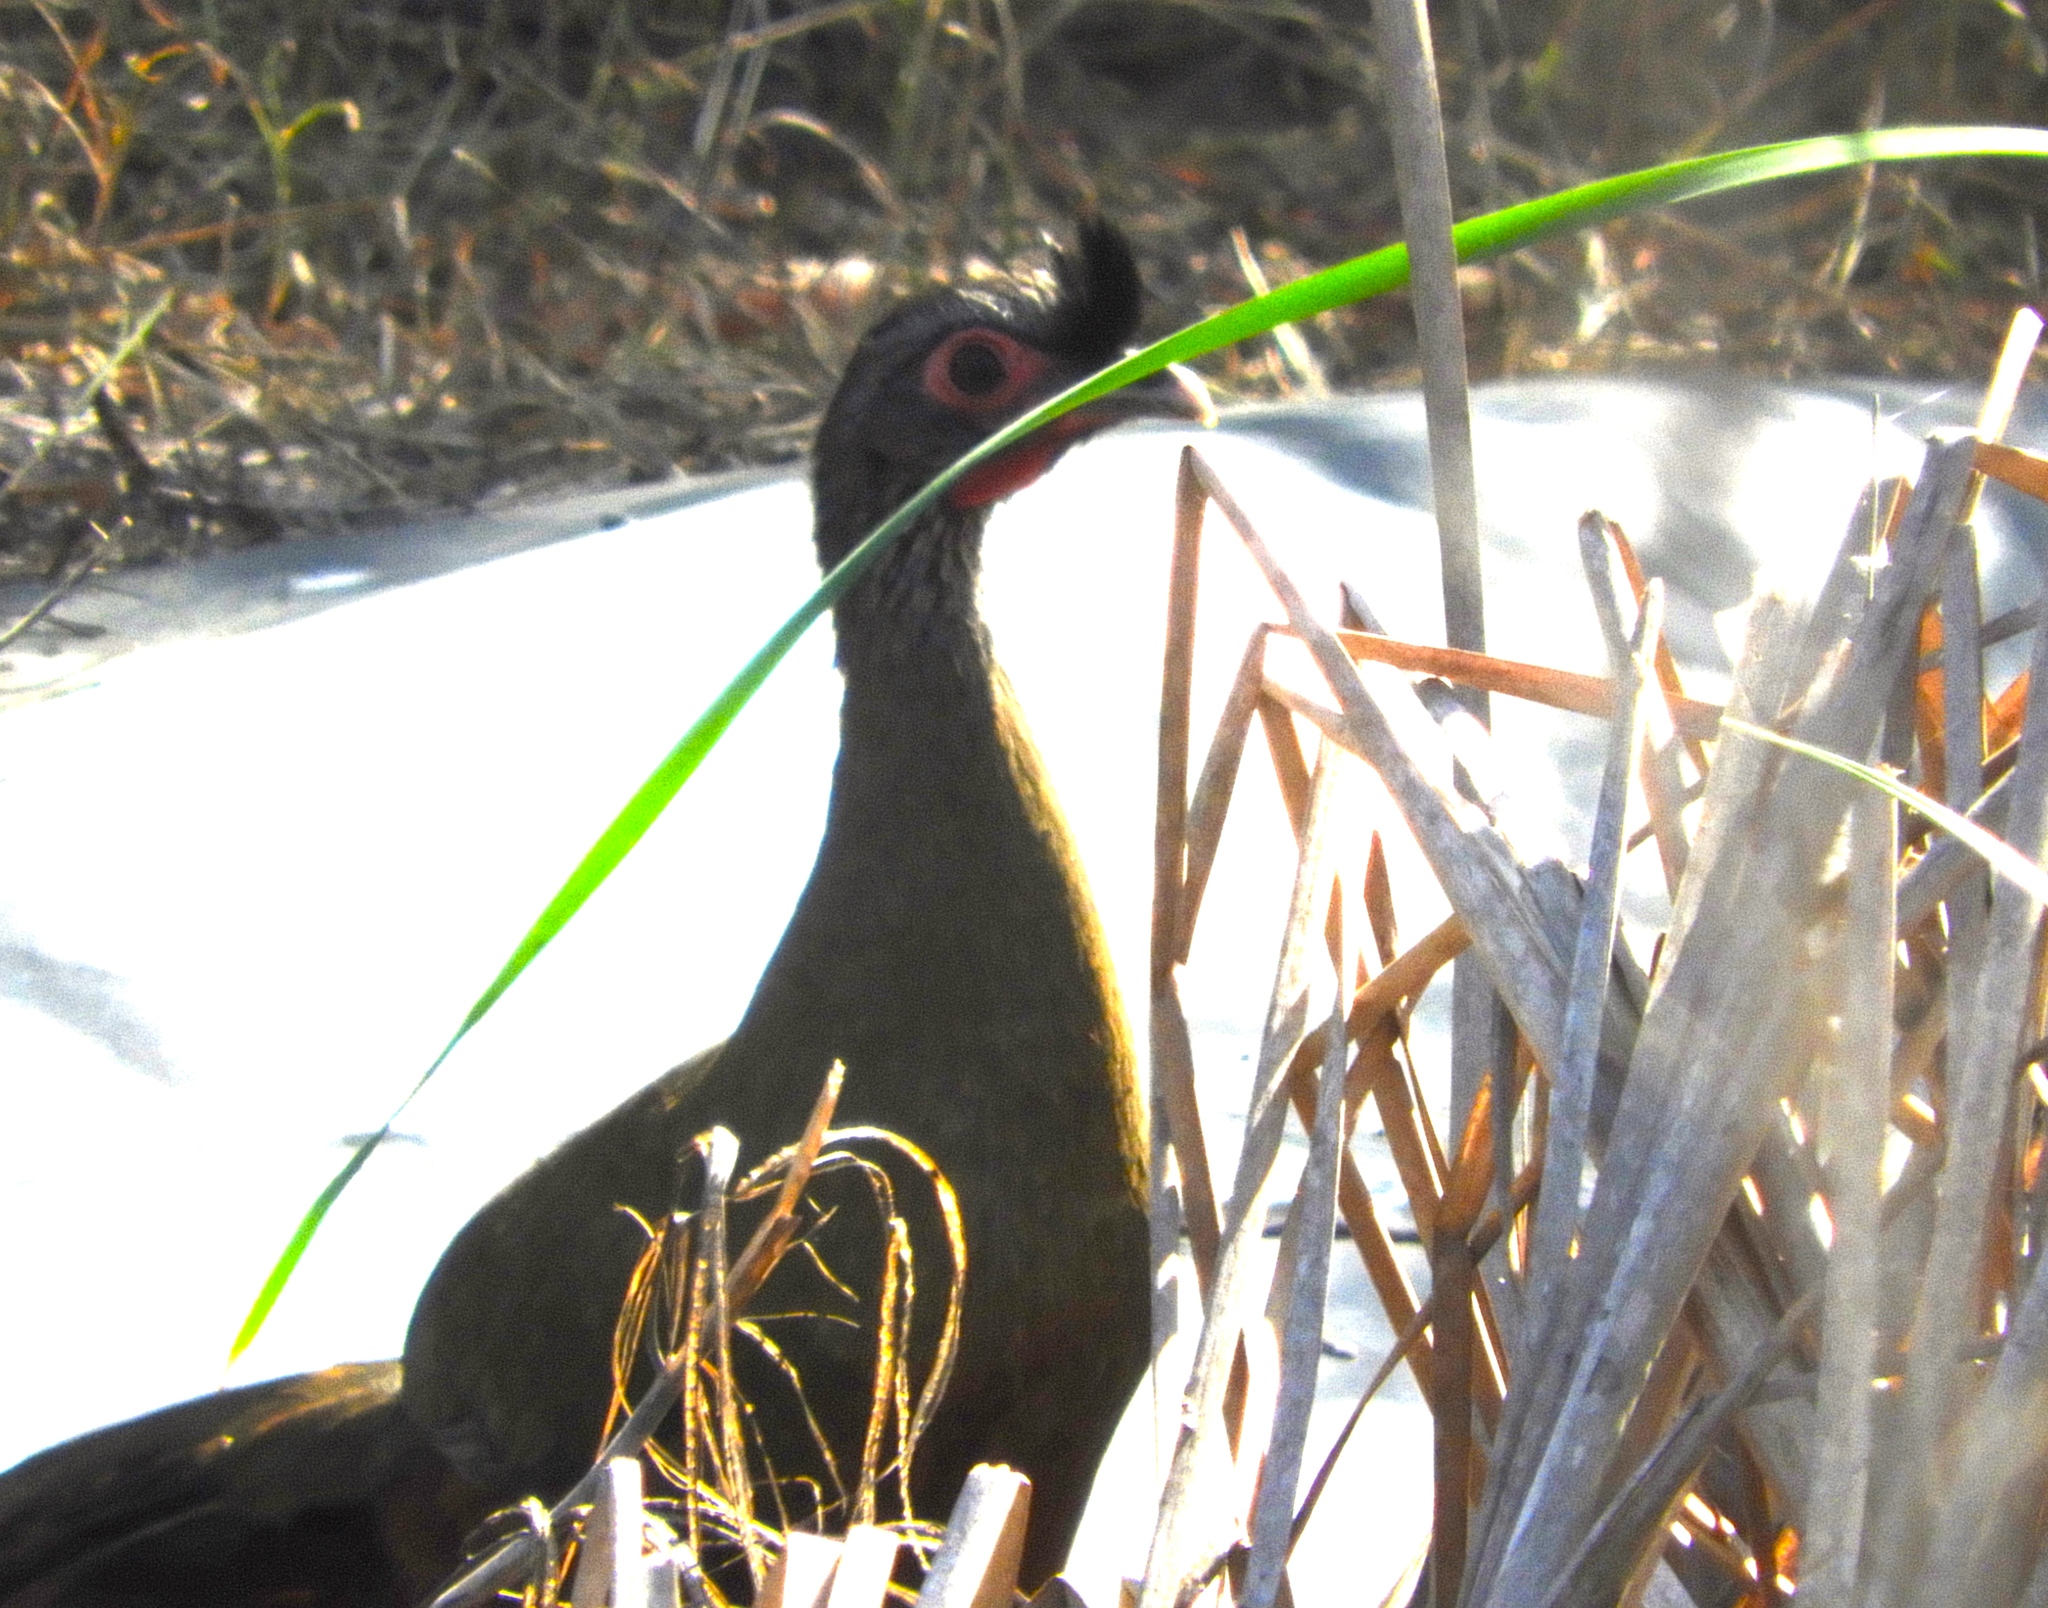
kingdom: Animalia
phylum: Chordata
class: Aves
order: Galliformes
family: Cracidae
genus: Ortalis
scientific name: Ortalis wagleri
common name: Rufous-bellied chachalaca
